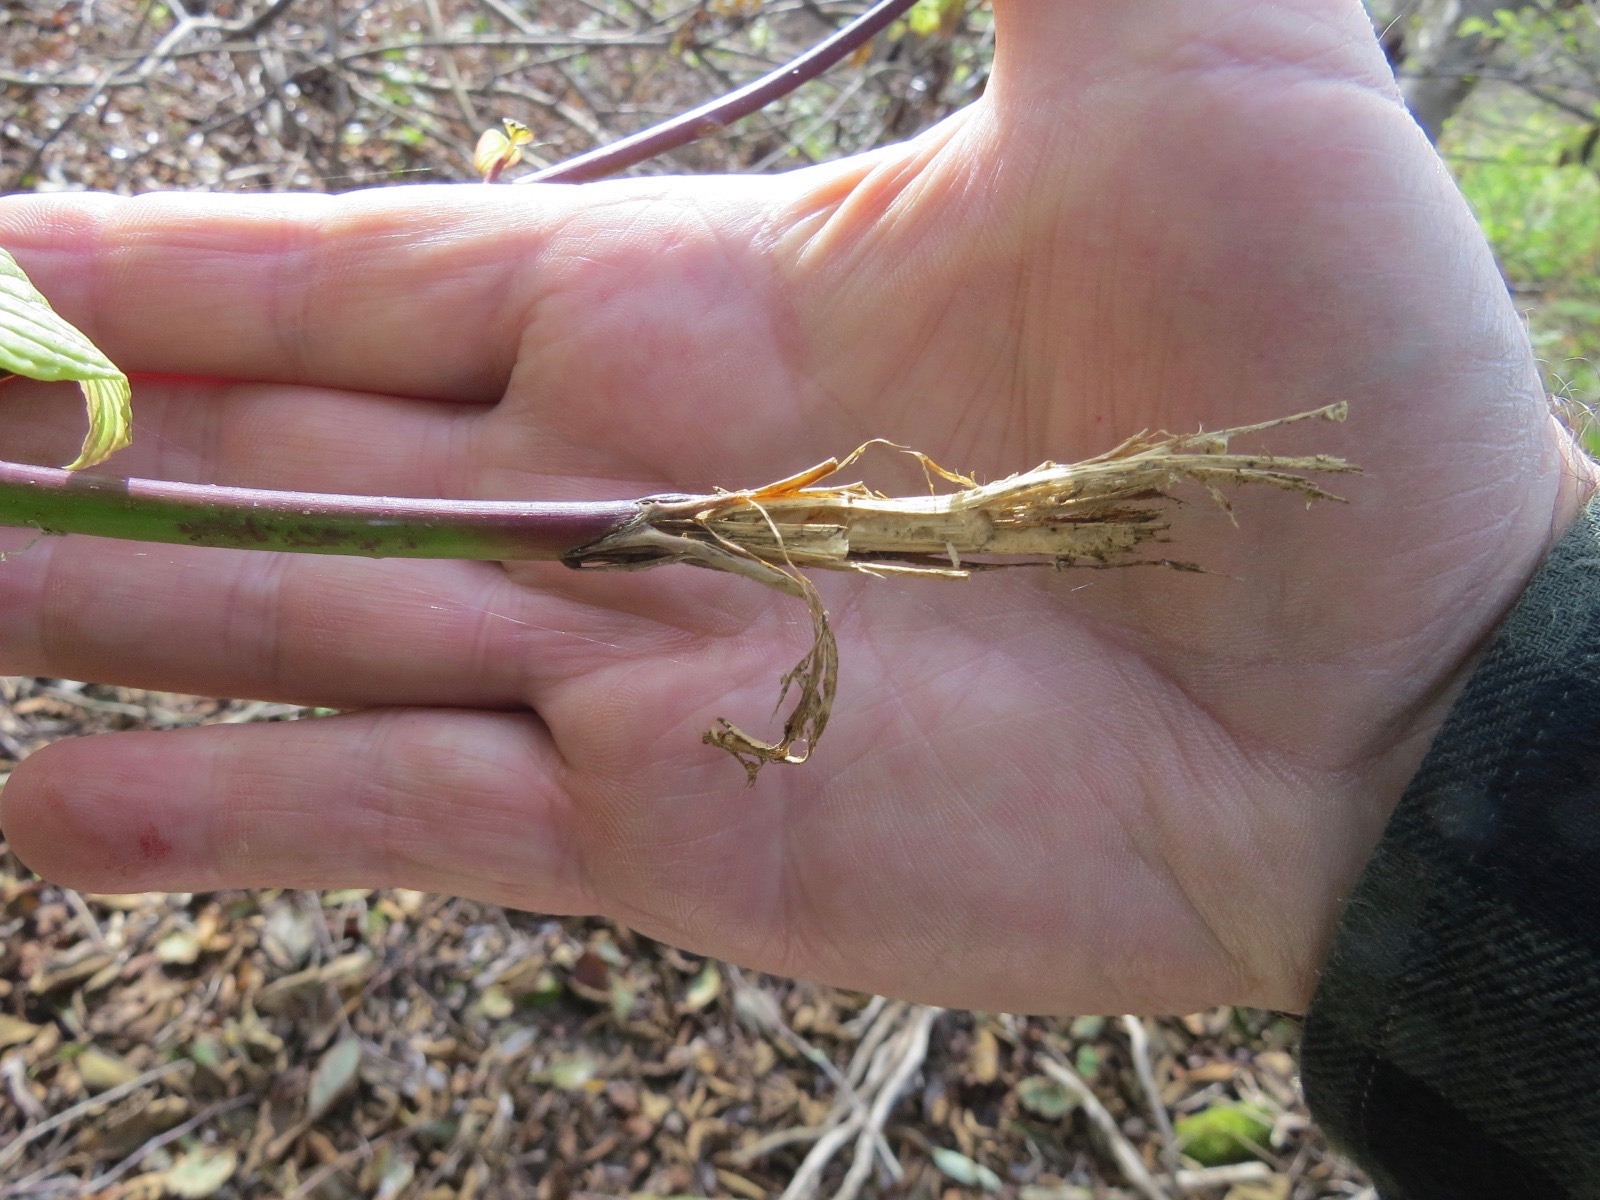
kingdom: Animalia
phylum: Chordata
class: Mammalia
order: Artiodactyla
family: Cervidae
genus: Odocoileus
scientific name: Odocoileus hemionus
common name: Mule deer
